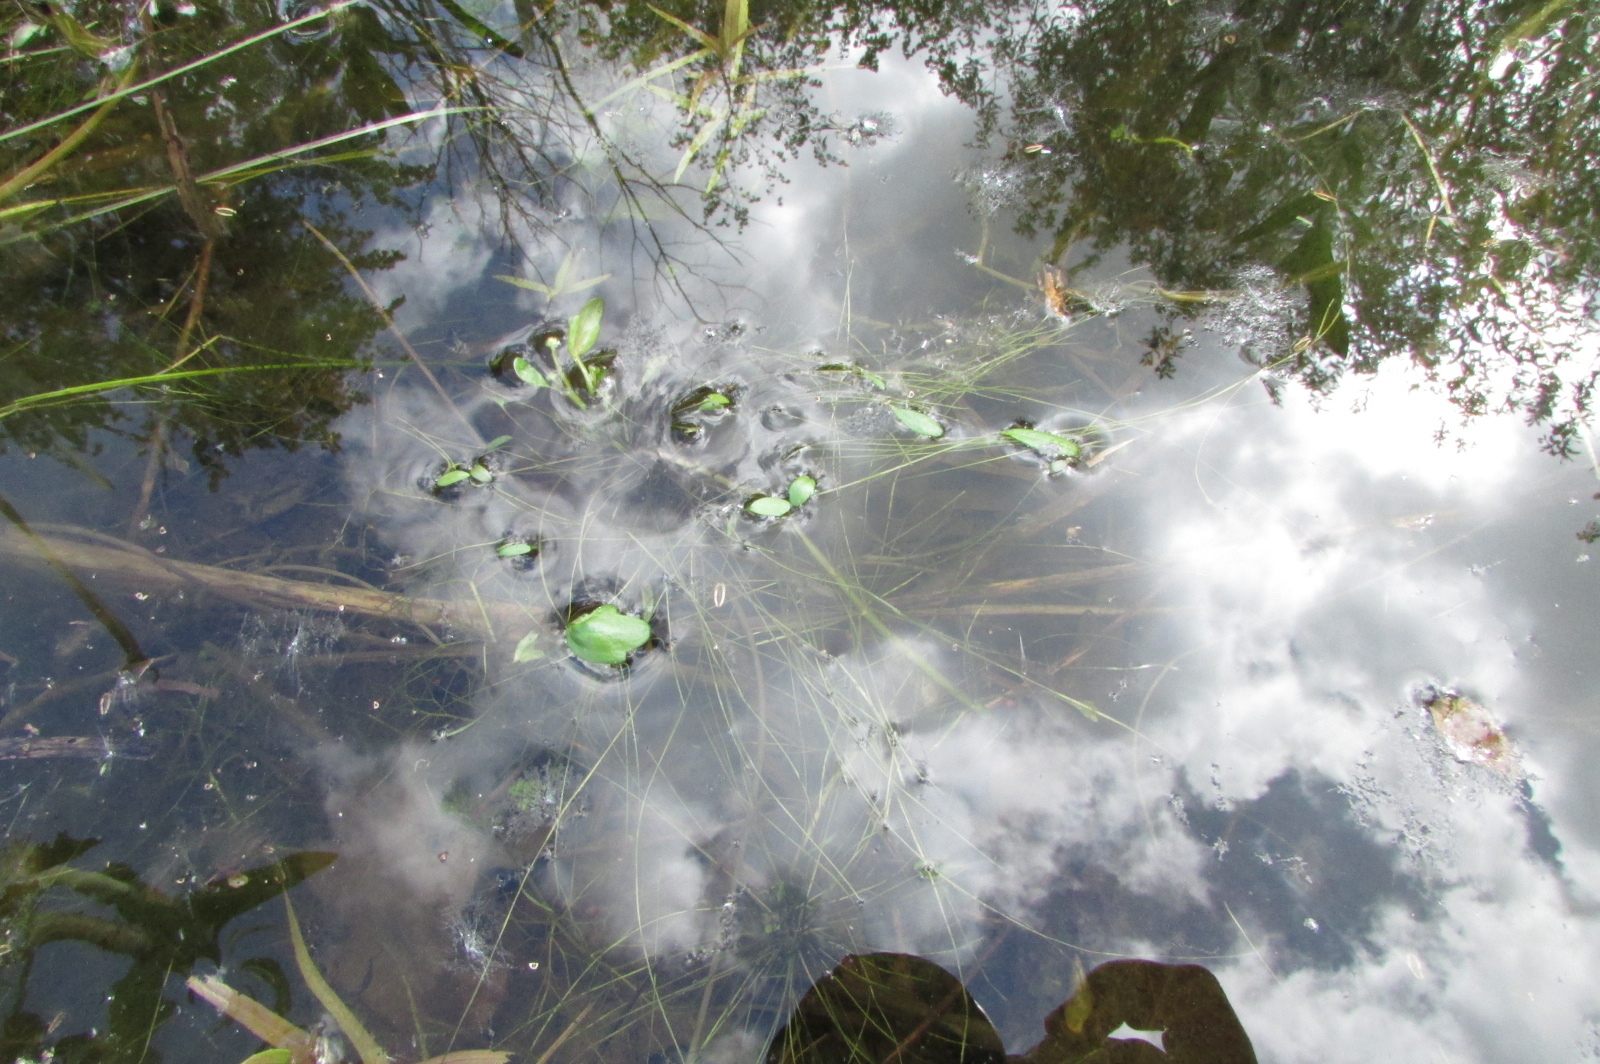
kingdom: Plantae
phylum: Tracheophyta
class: Magnoliopsida
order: Ranunculales
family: Ranunculaceae
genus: Ranunculus
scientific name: Ranunculus polyphyllus
